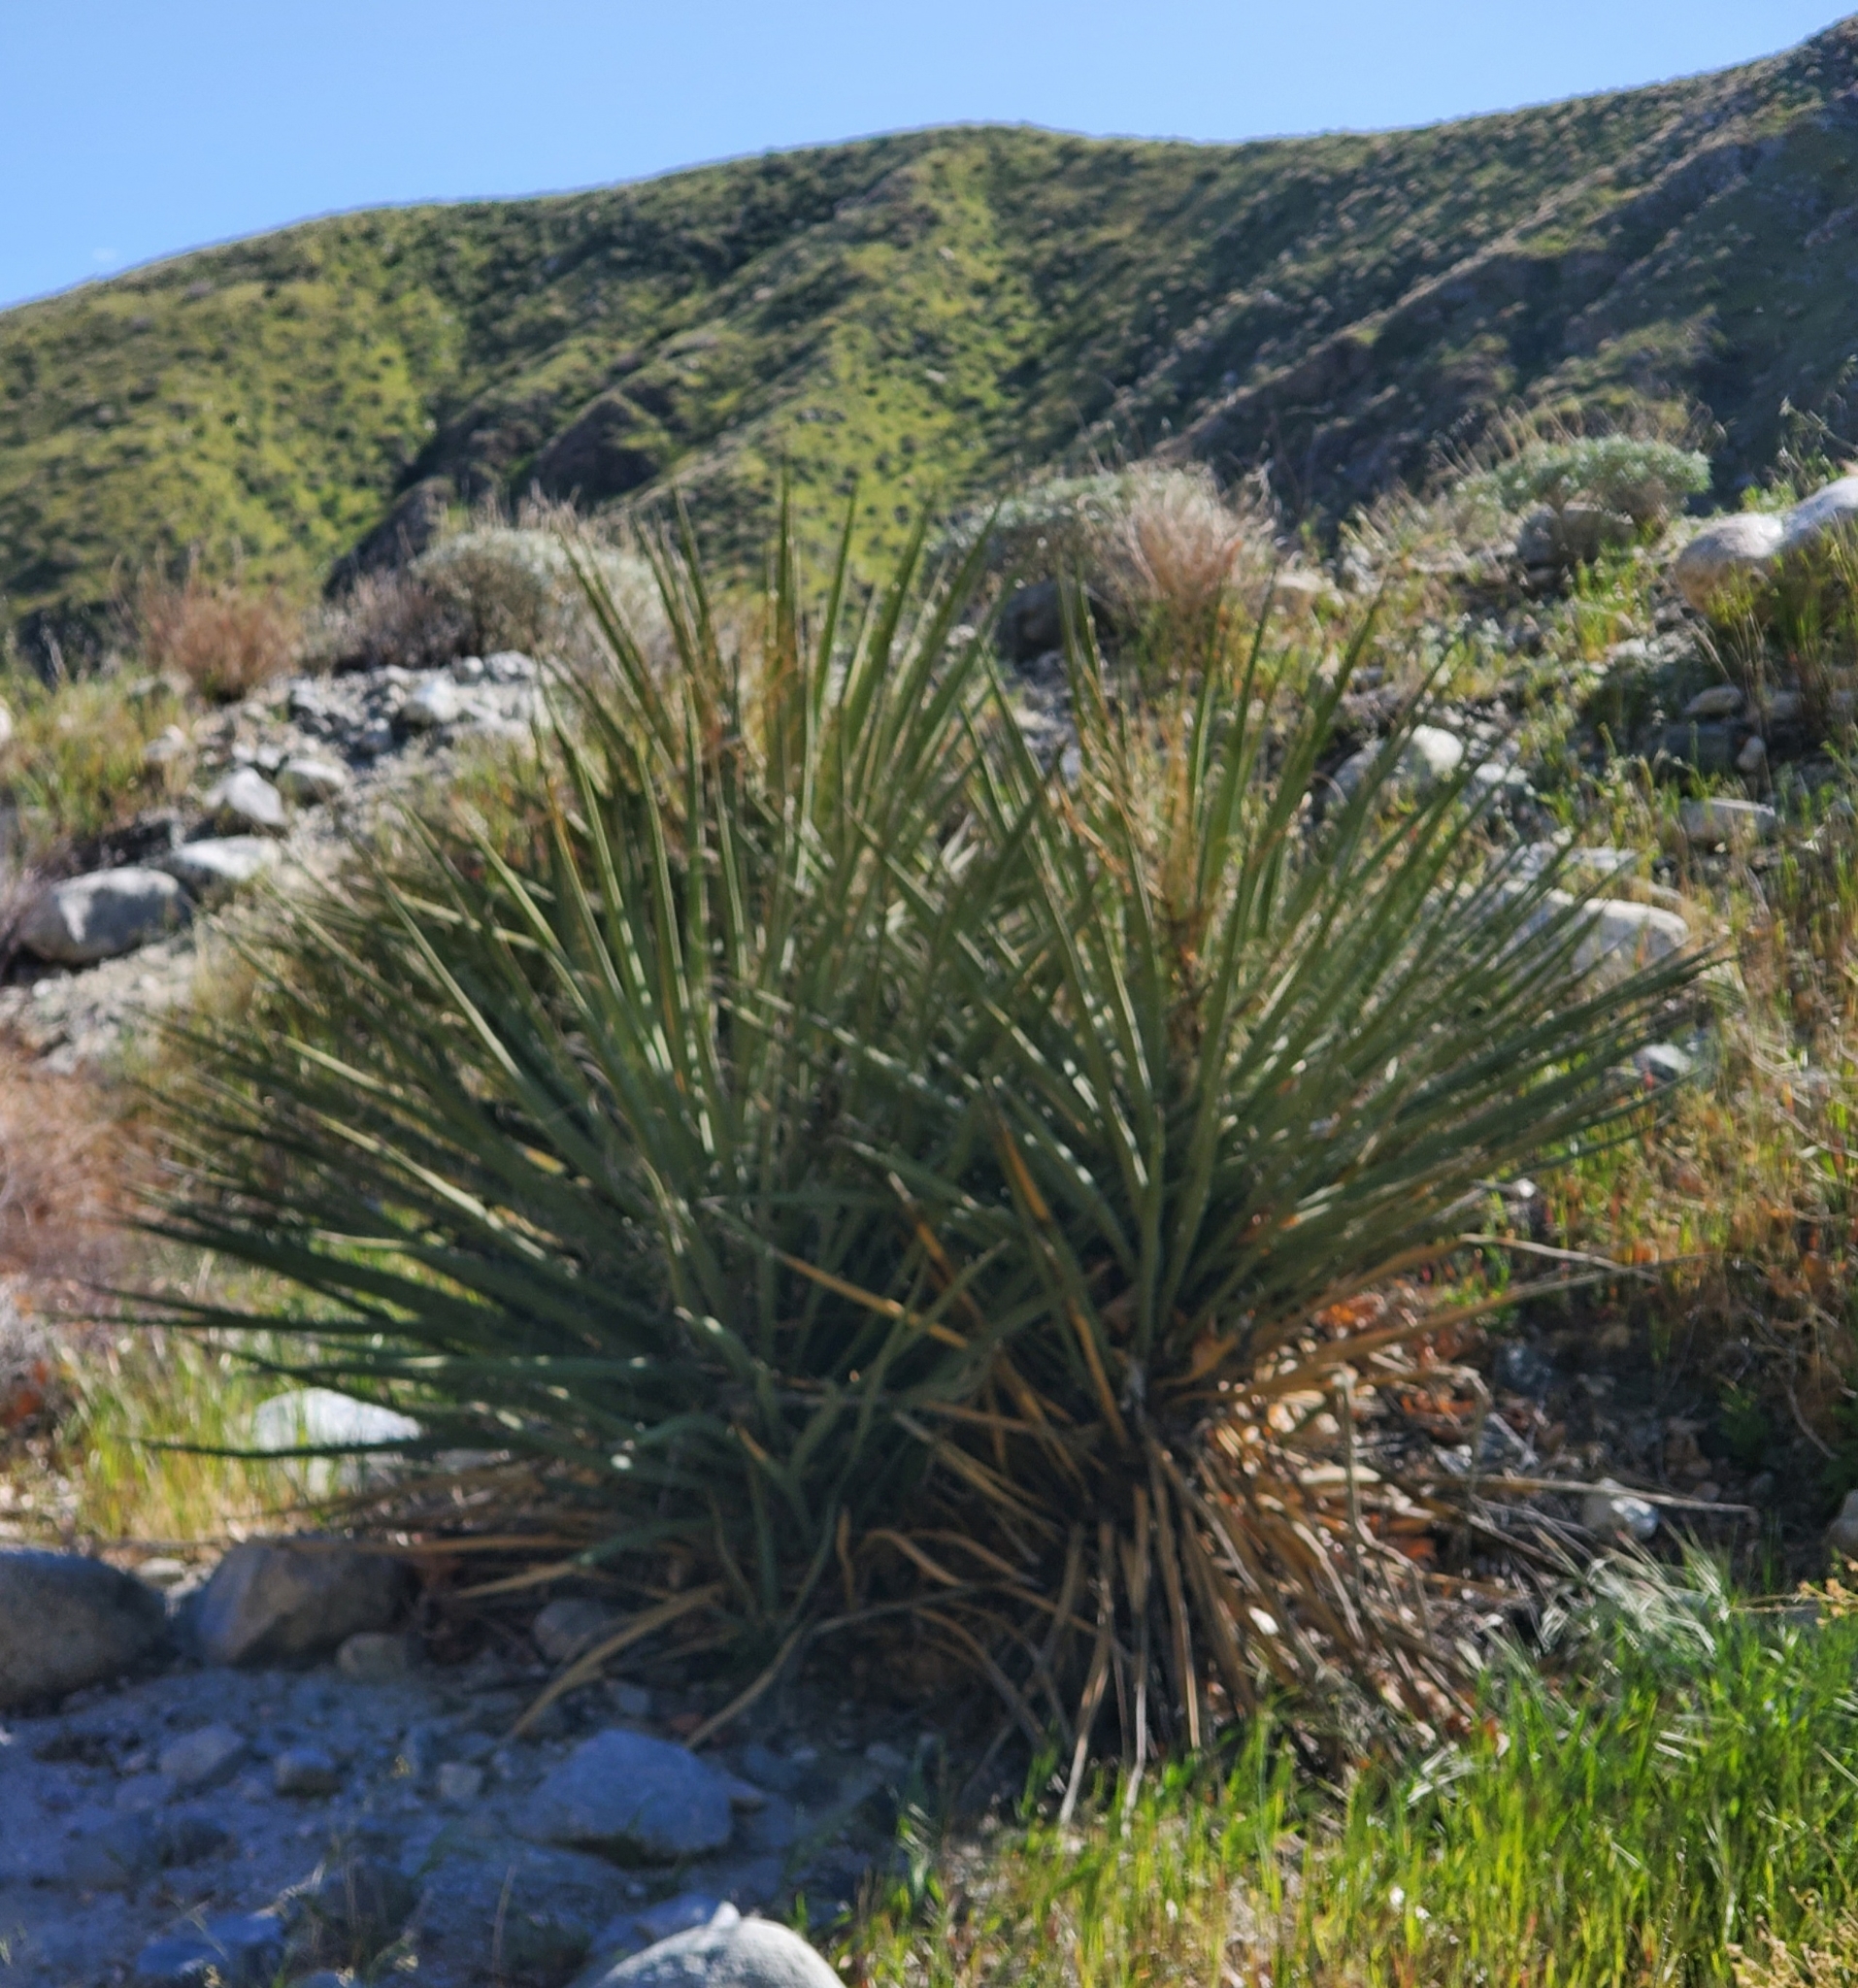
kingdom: Plantae
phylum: Tracheophyta
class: Liliopsida
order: Asparagales
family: Asparagaceae
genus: Yucca
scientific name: Yucca schidigera
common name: Mojave yucca
